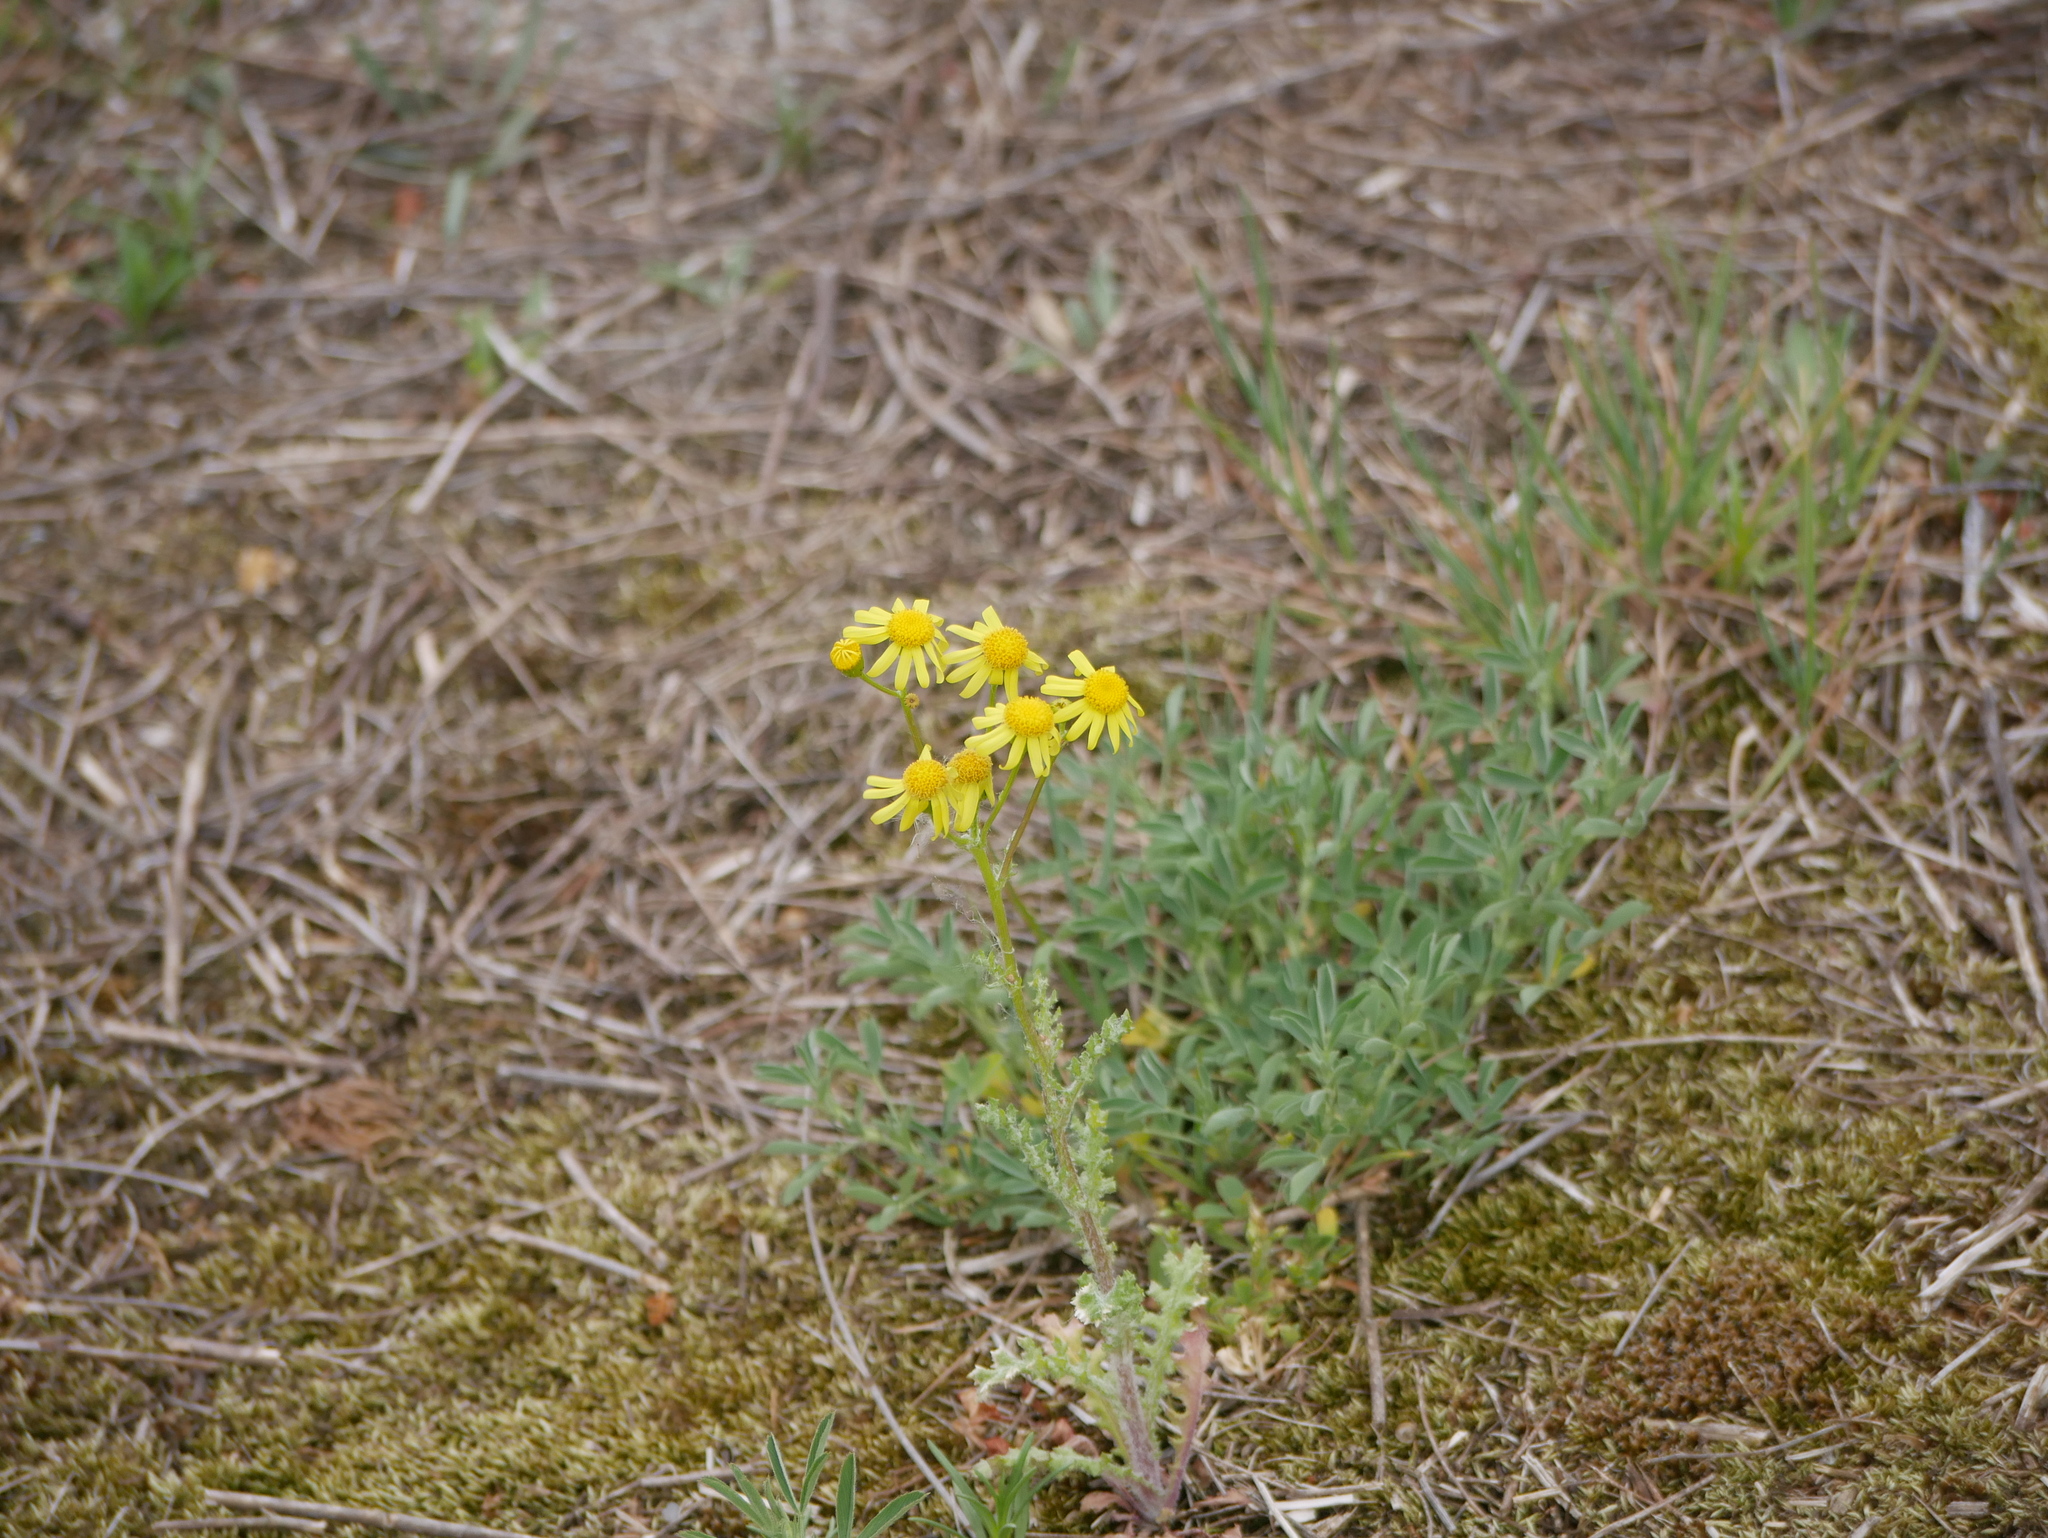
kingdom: Plantae
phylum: Tracheophyta
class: Magnoliopsida
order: Asterales
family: Asteraceae
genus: Senecio
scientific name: Senecio vernalis
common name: Eastern groundsel
